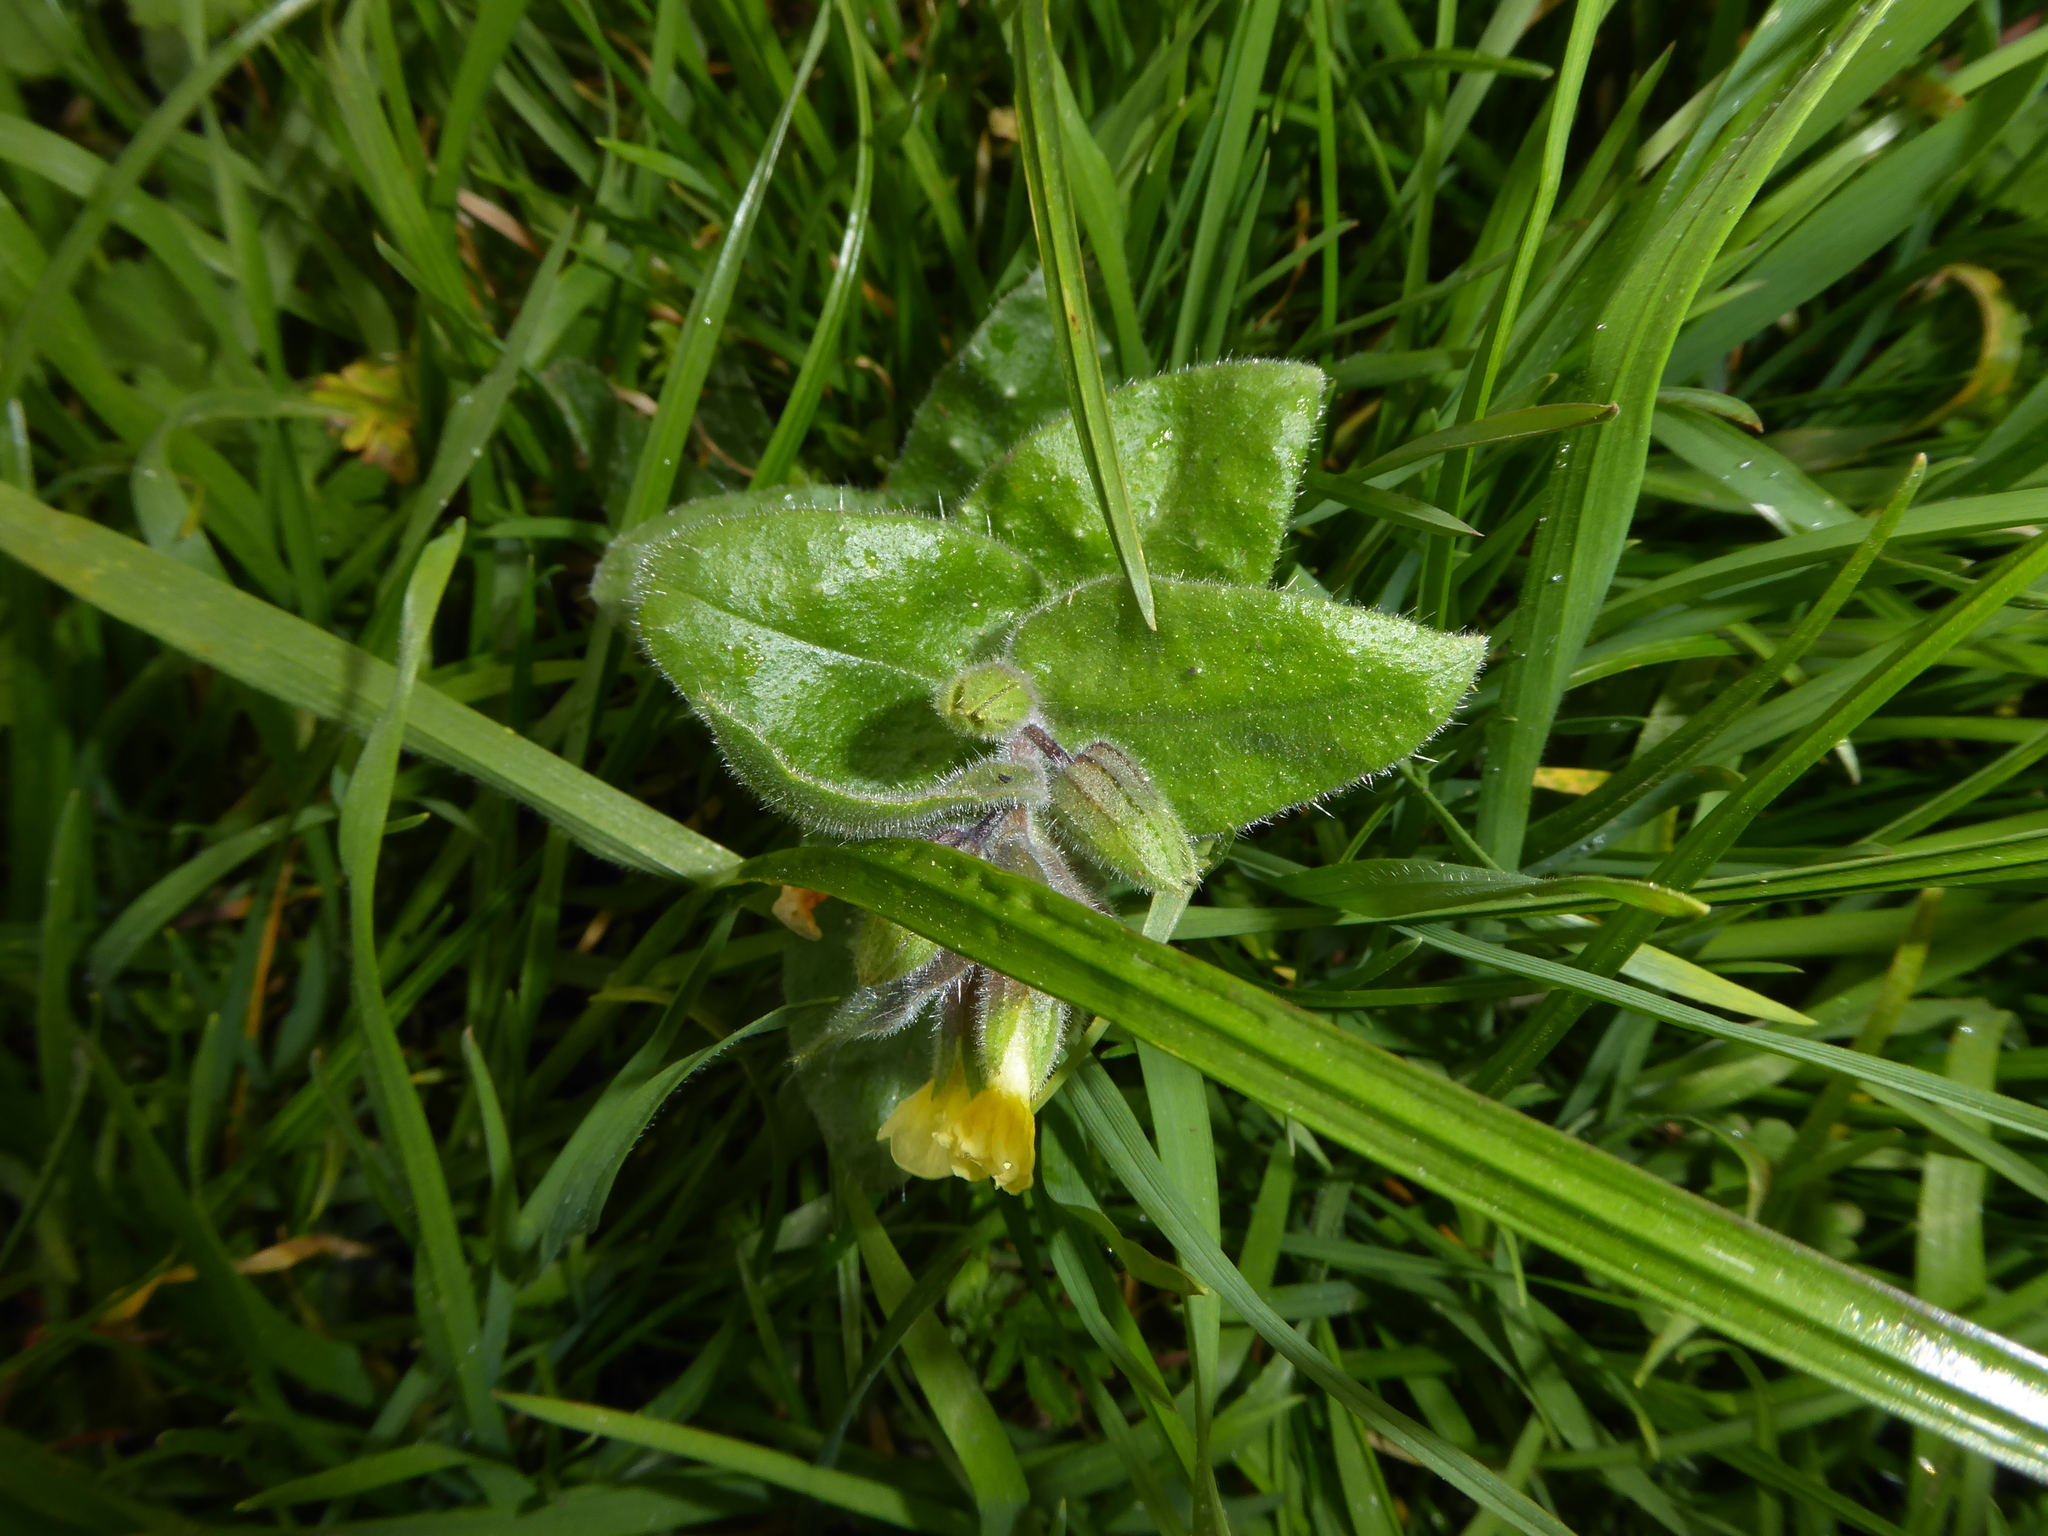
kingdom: Plantae
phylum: Tracheophyta
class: Magnoliopsida
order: Boraginales
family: Boraginaceae
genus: Nonea
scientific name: Nonea lutea
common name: Yellow nonea
